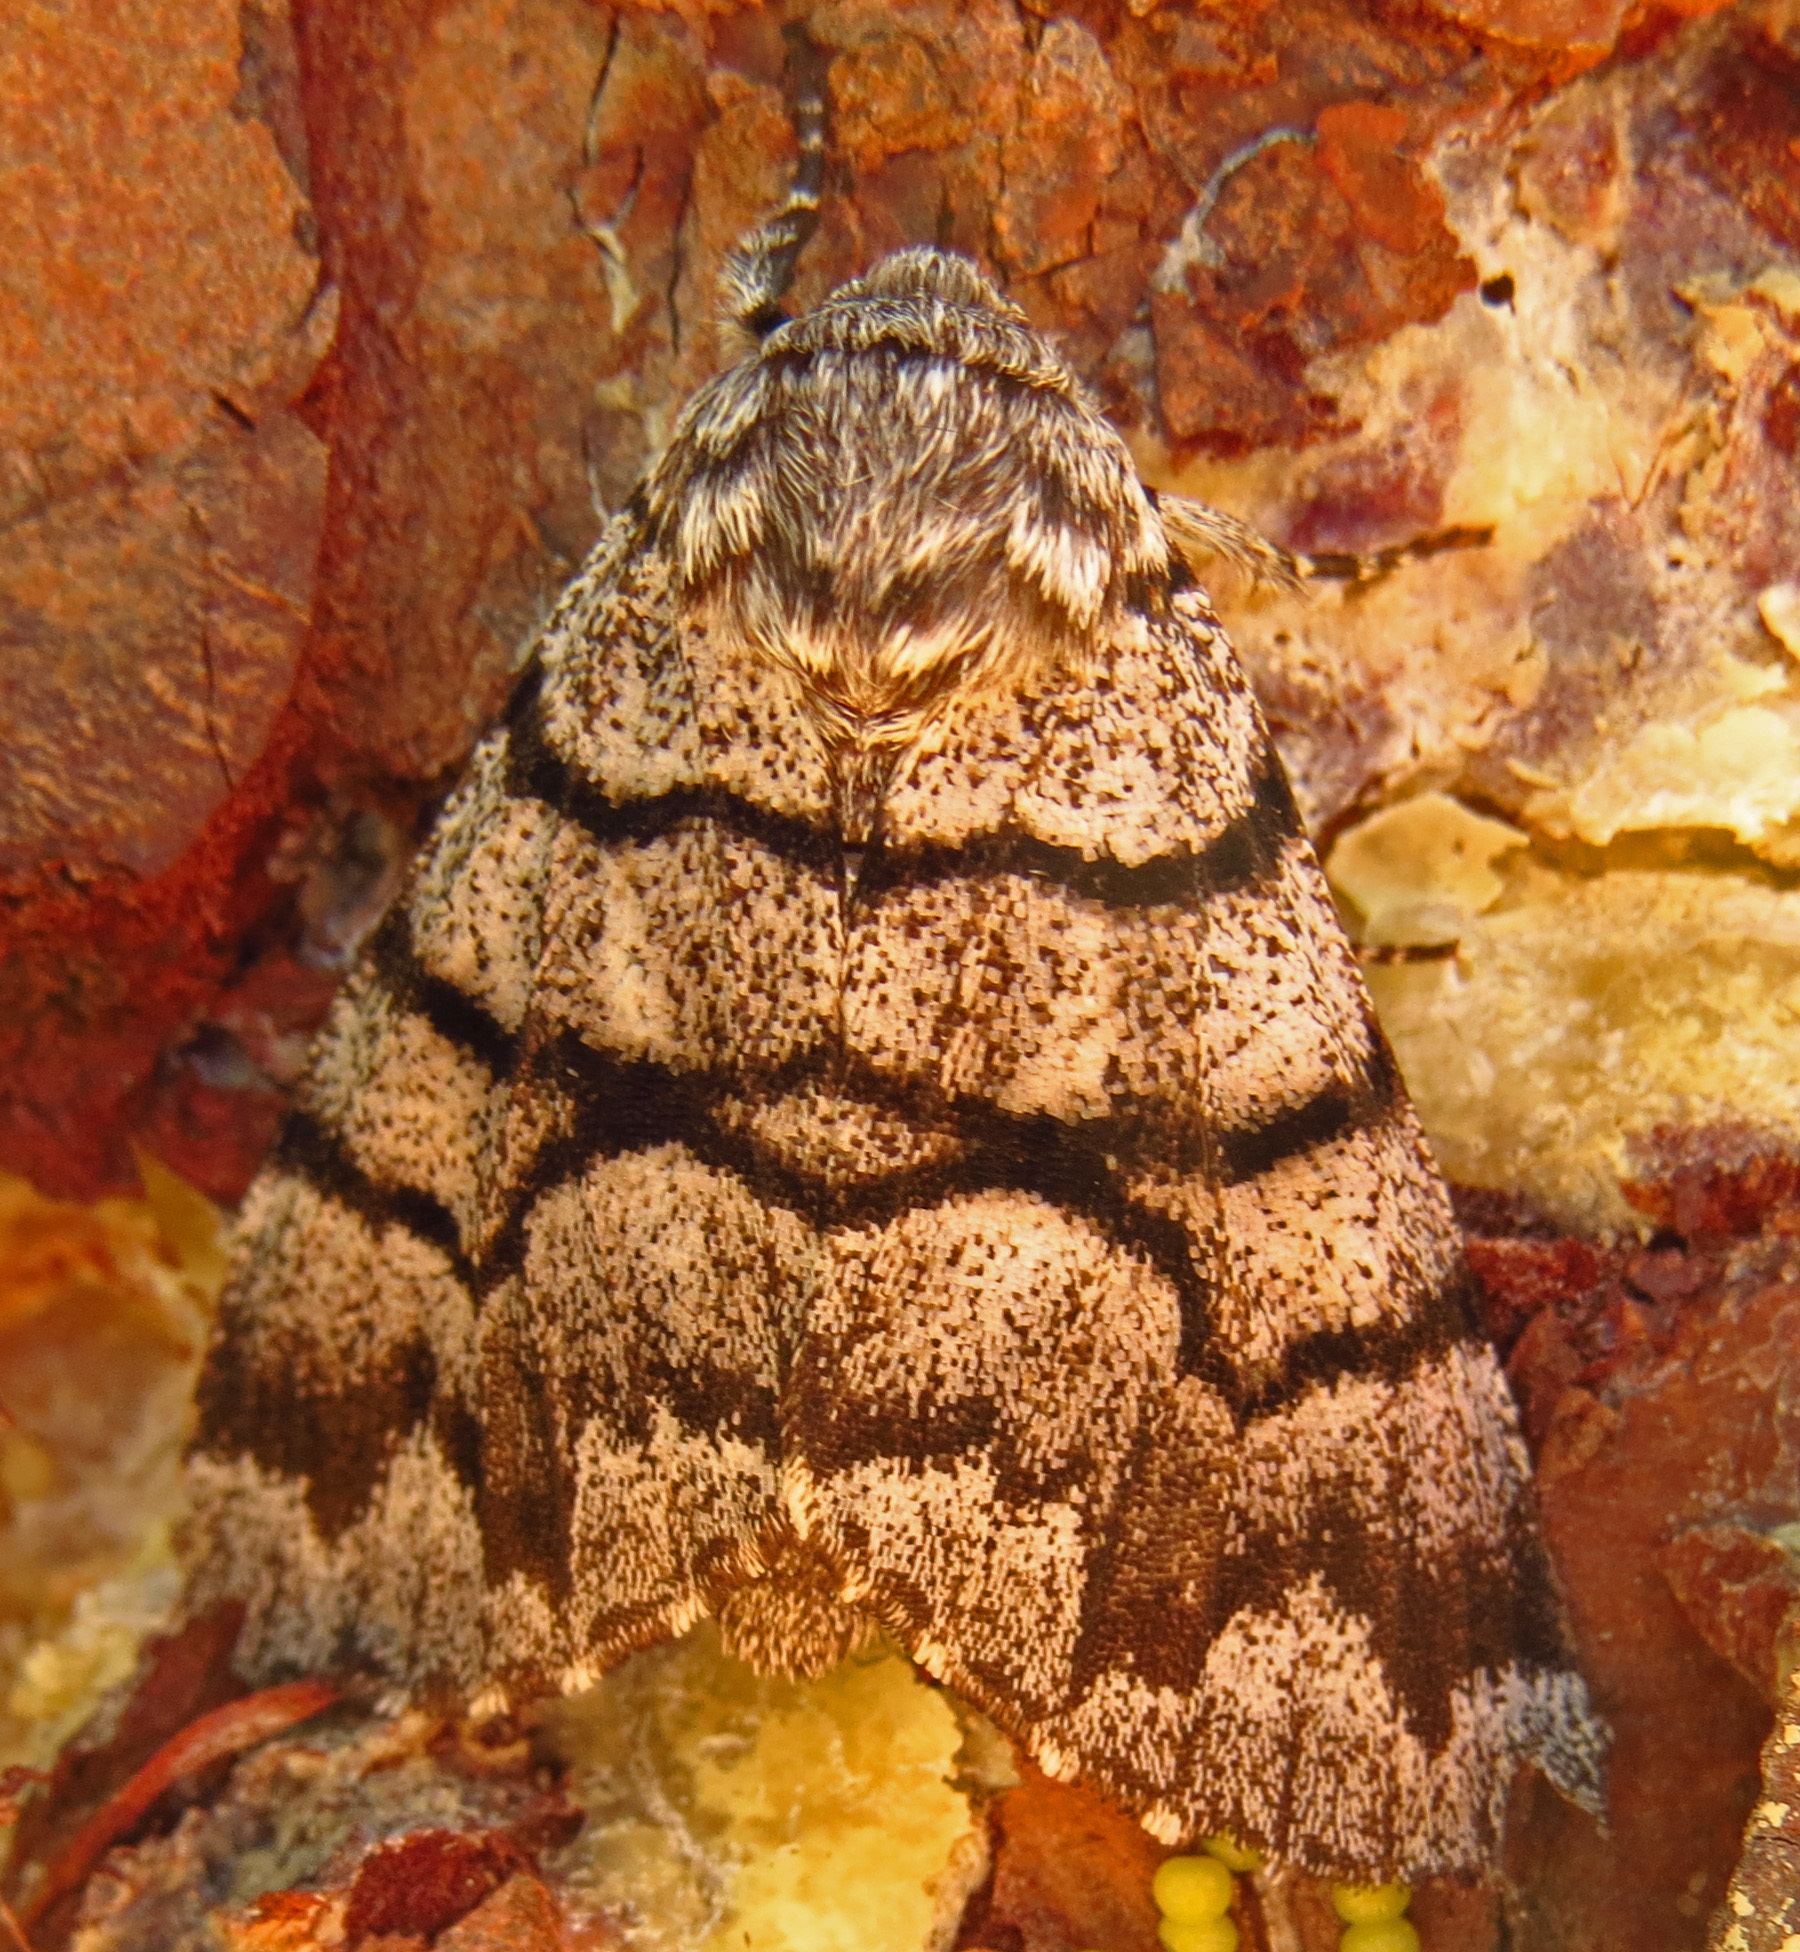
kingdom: Animalia
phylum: Arthropoda
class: Insecta
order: Lepidoptera
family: Noctuidae
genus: Panthea
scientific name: Panthea furcilla
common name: Eastern panthea moth
